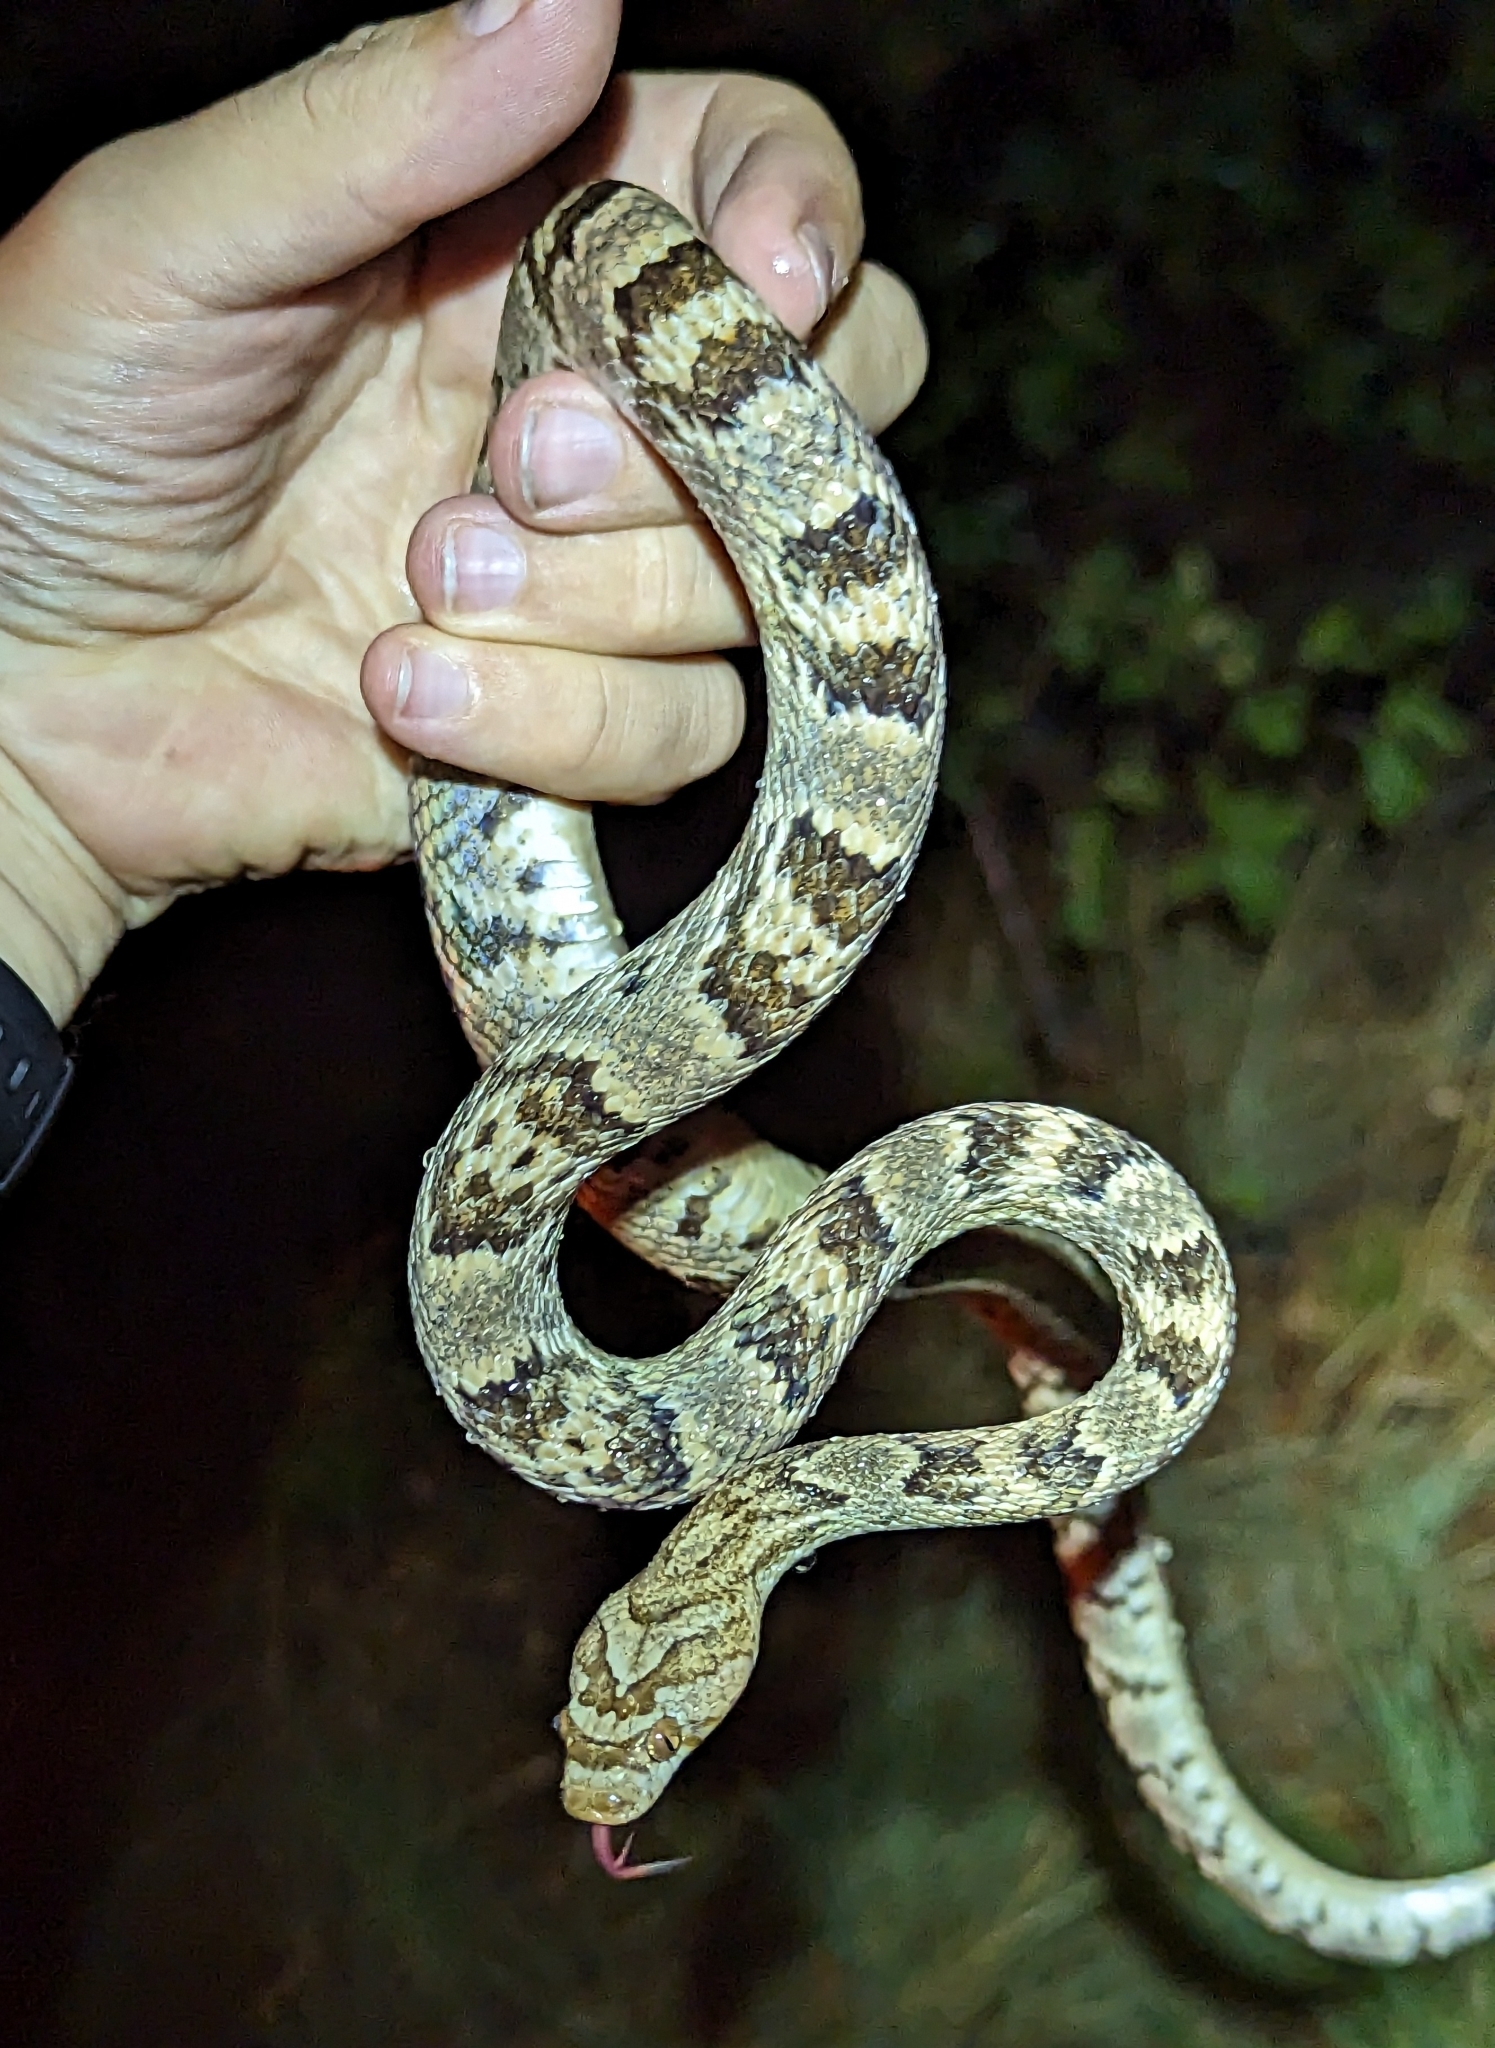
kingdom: Animalia
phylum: Chordata
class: Squamata
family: Colubridae
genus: Trimorphodon
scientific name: Trimorphodon lambda
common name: Sonoran lyre snake
